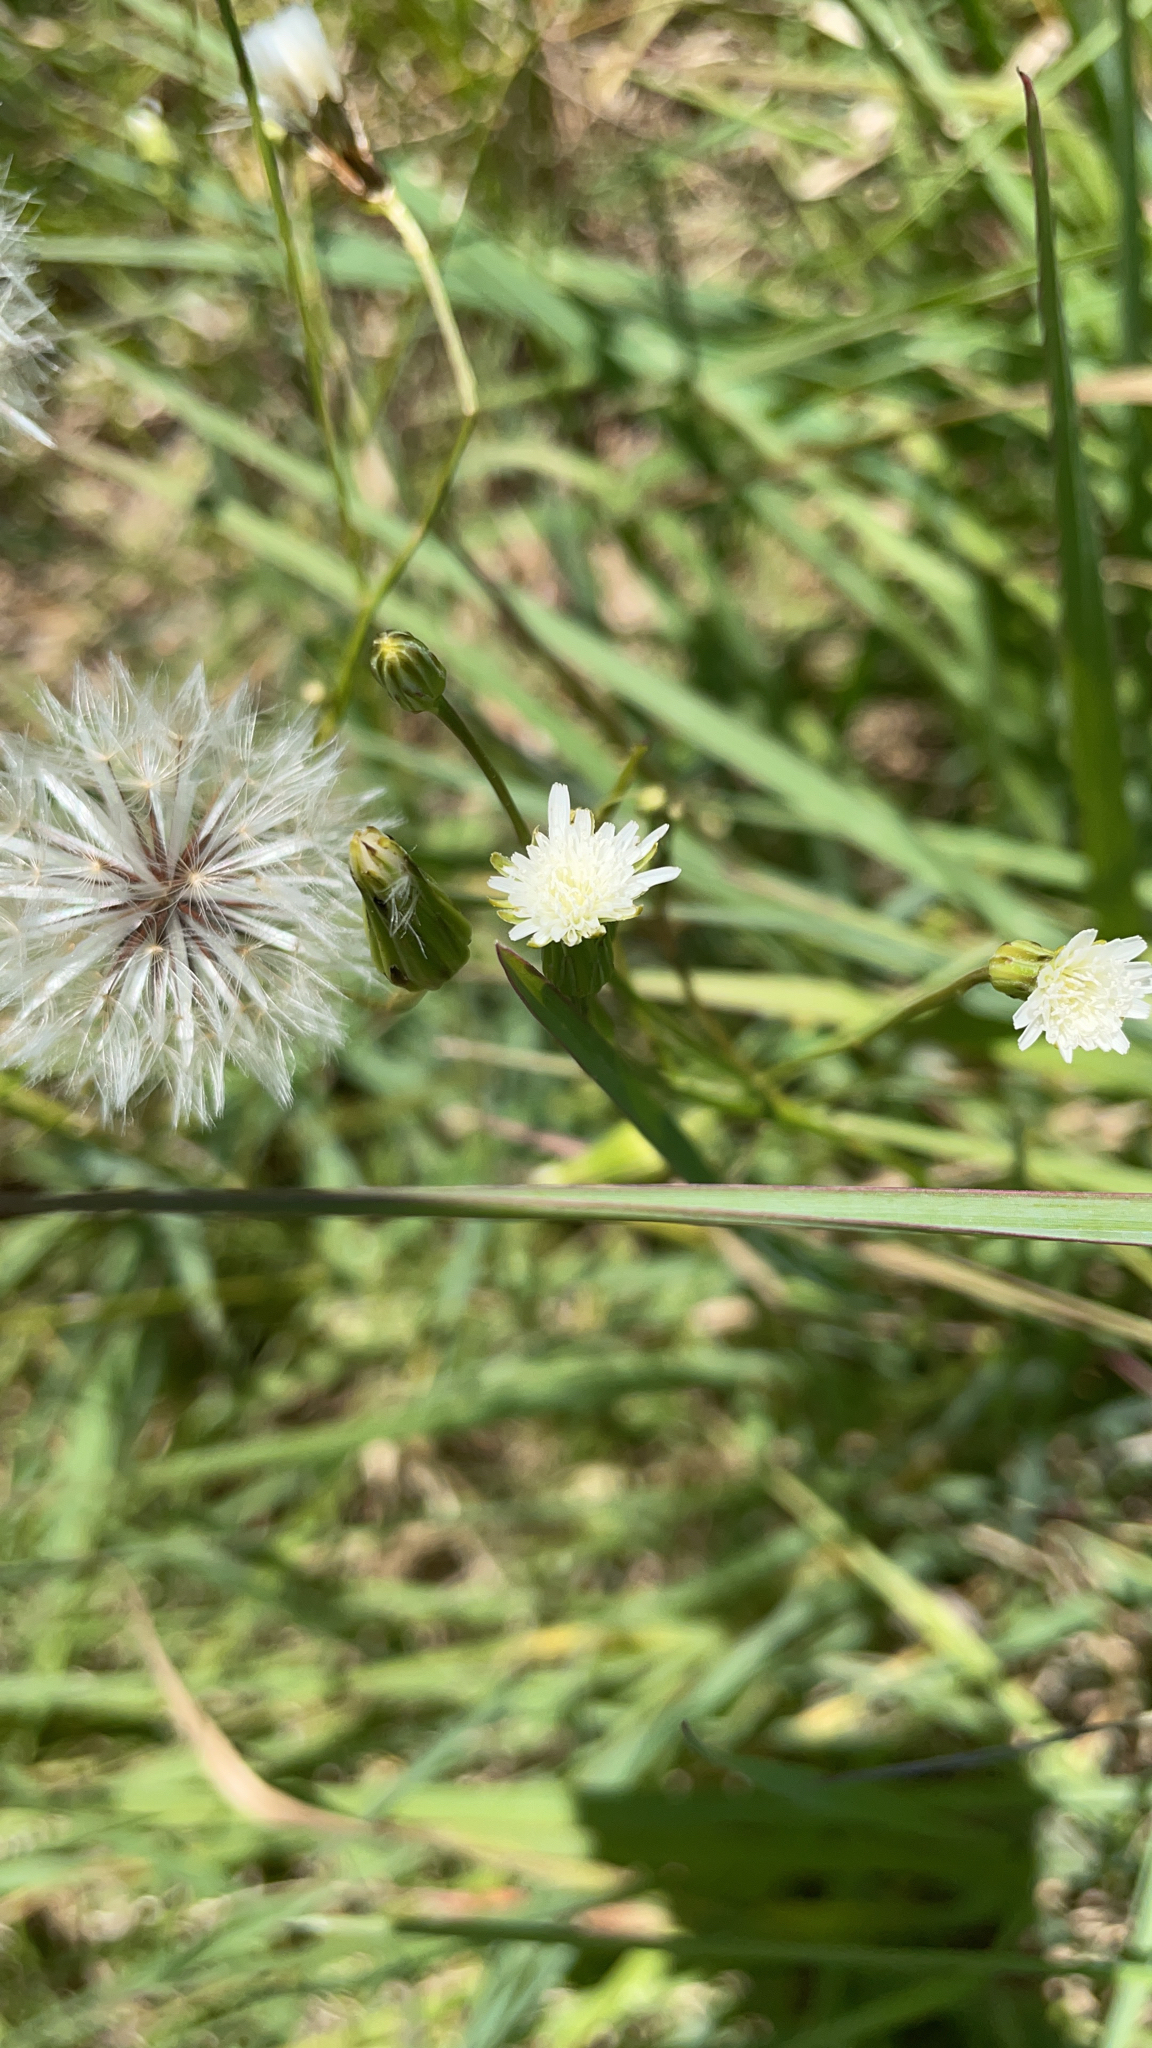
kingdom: Plantae
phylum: Tracheophyta
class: Magnoliopsida
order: Asterales
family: Asteraceae
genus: Hypochaeris
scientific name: Hypochaeris albiflora
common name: White flatweed
